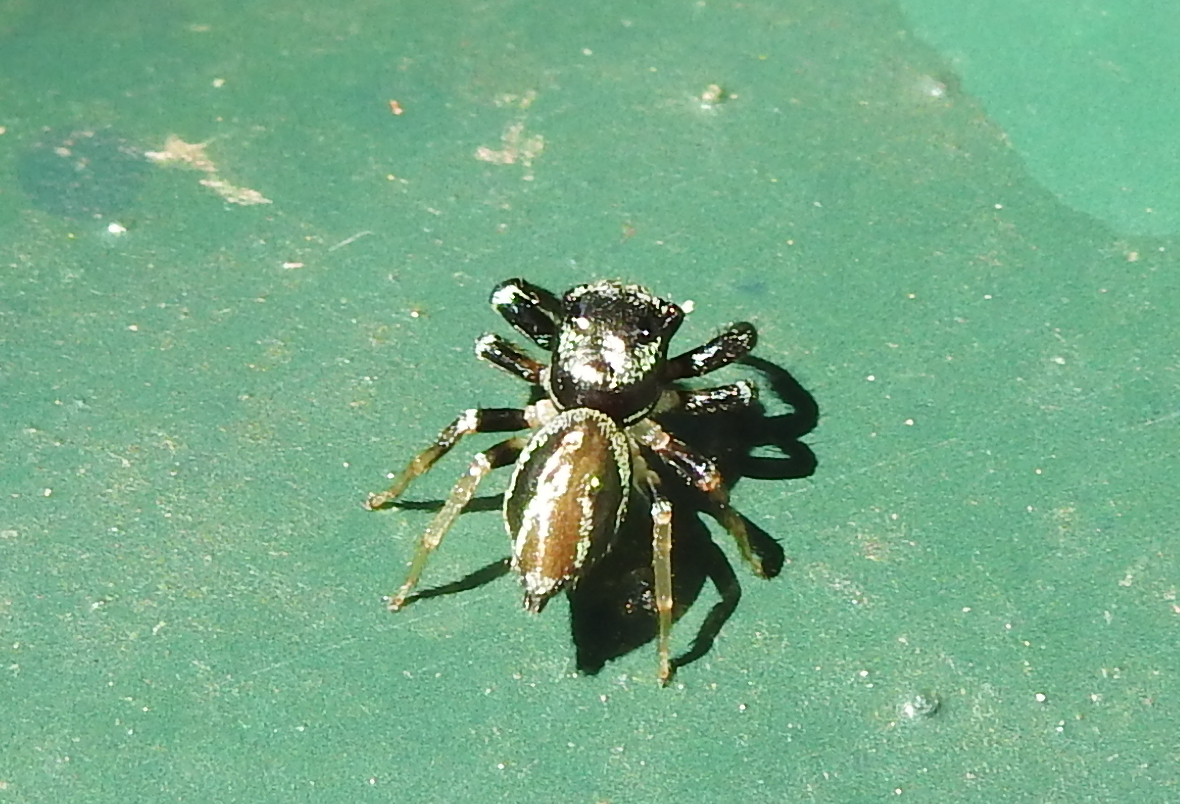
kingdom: Animalia
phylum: Arthropoda
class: Arachnida
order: Araneae
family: Salticidae
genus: Thiania
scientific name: Thiania bhamoensis
